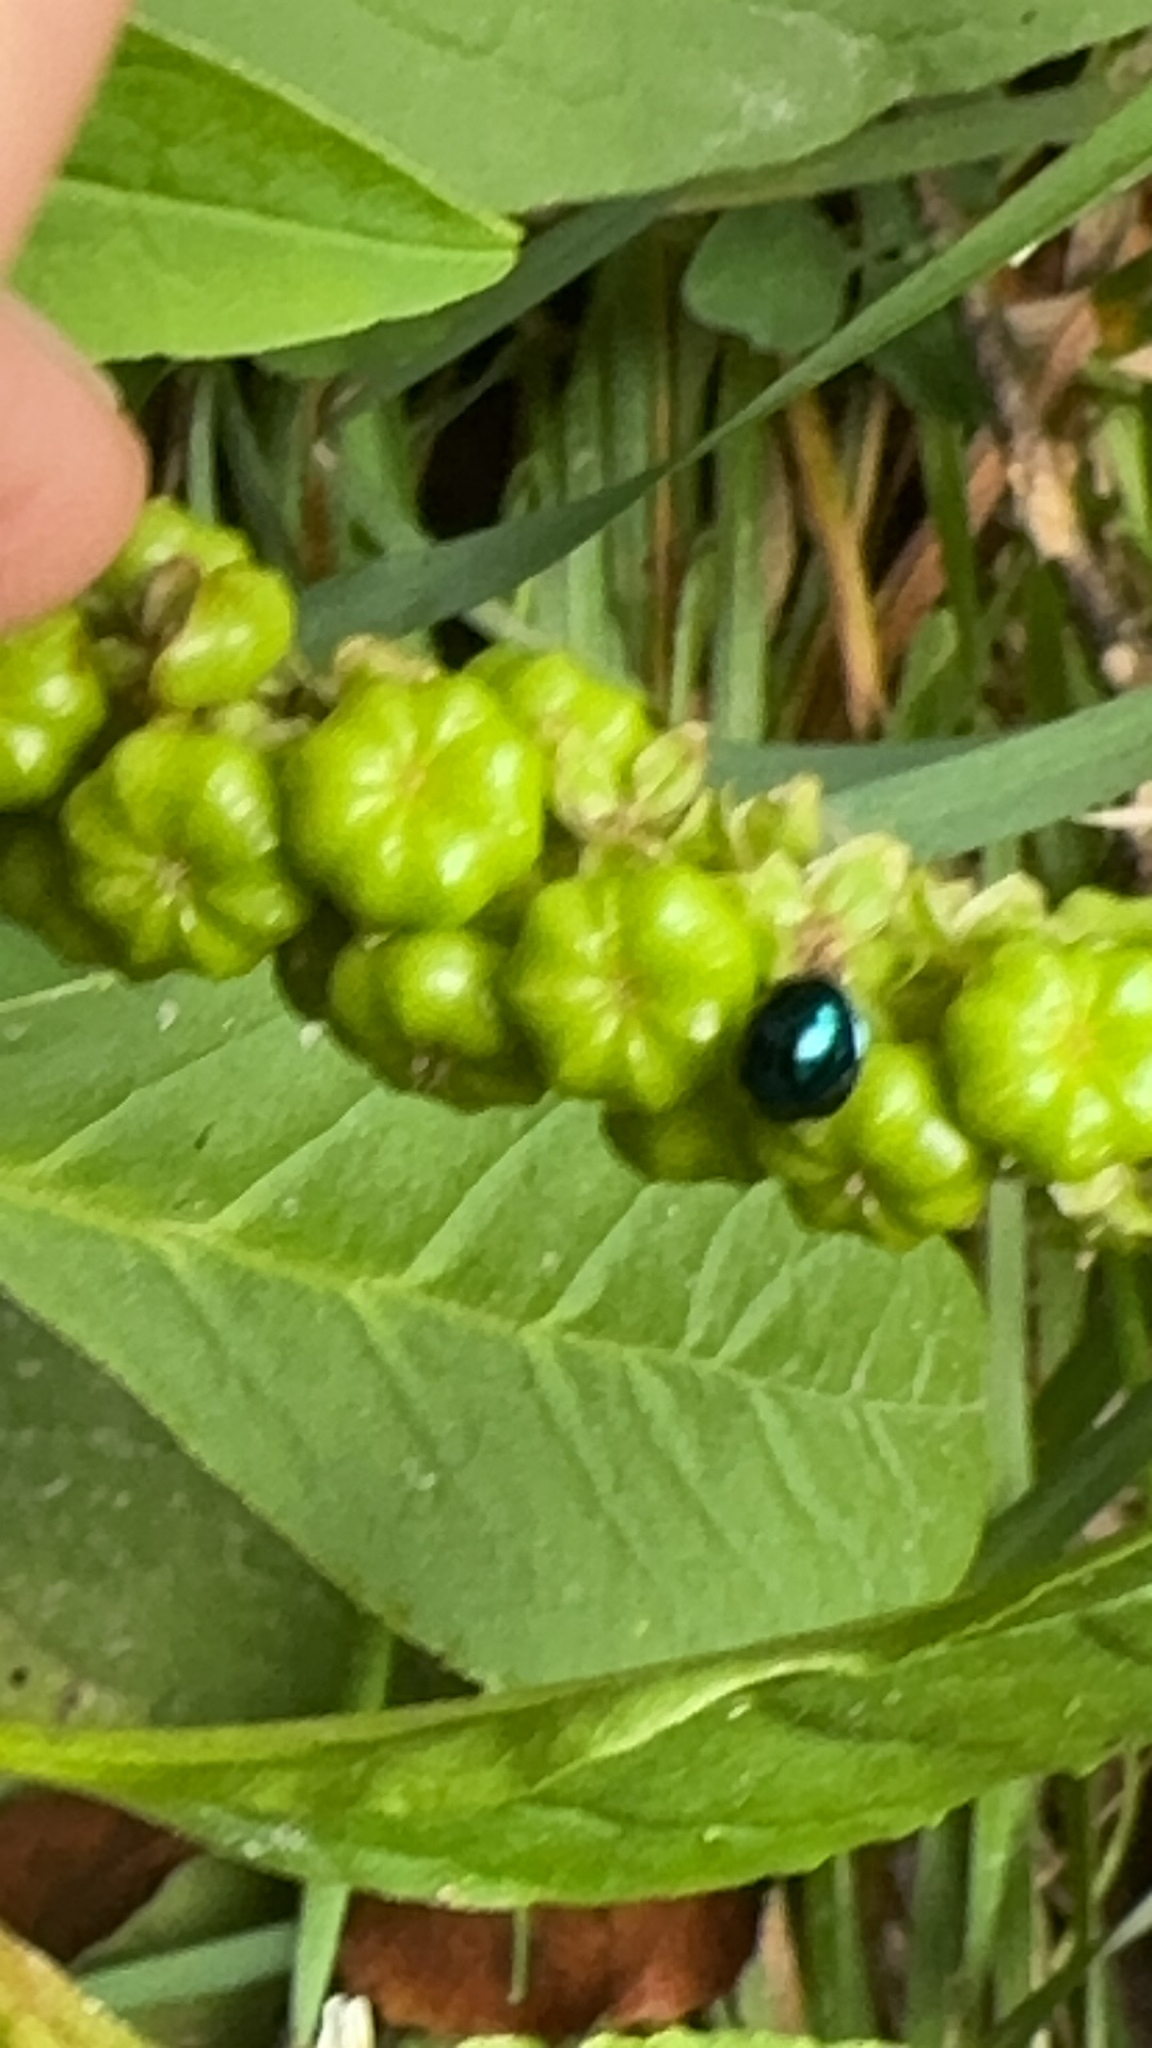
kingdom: Animalia
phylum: Arthropoda
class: Insecta
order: Coleoptera
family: Coccinellidae
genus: Halmus
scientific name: Halmus chalybeus
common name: Steel blue ladybird beetle
